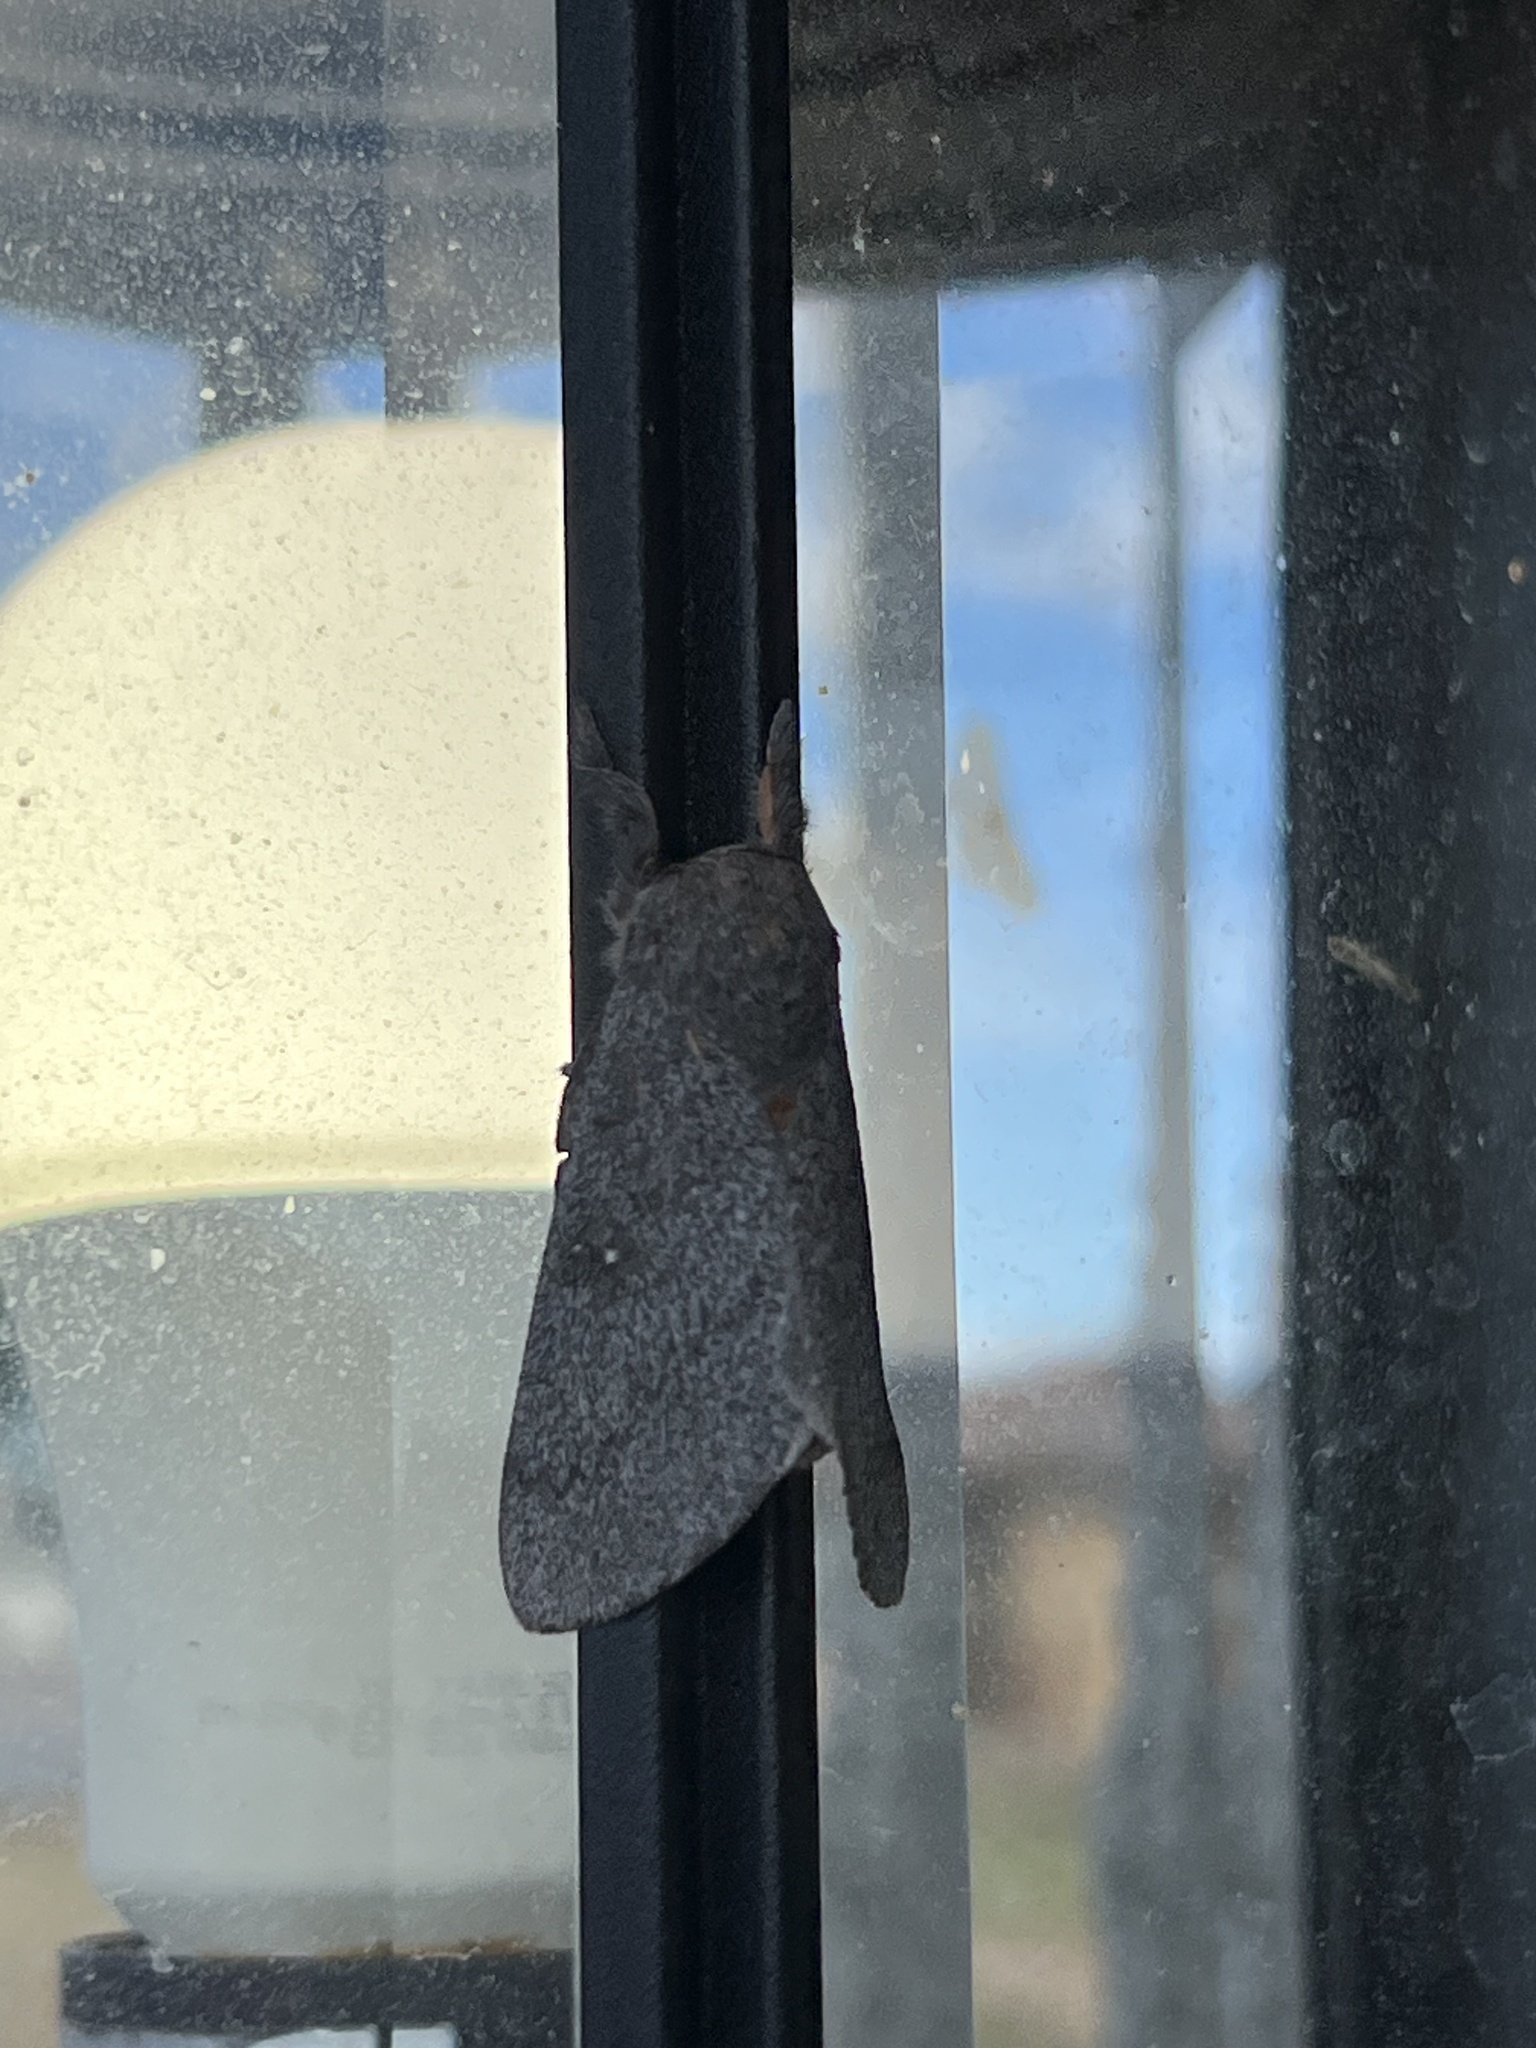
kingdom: Animalia
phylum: Arthropoda
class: Insecta
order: Lepidoptera
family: Saturniidae
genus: Syssphinx
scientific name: Syssphinx hubbardi
